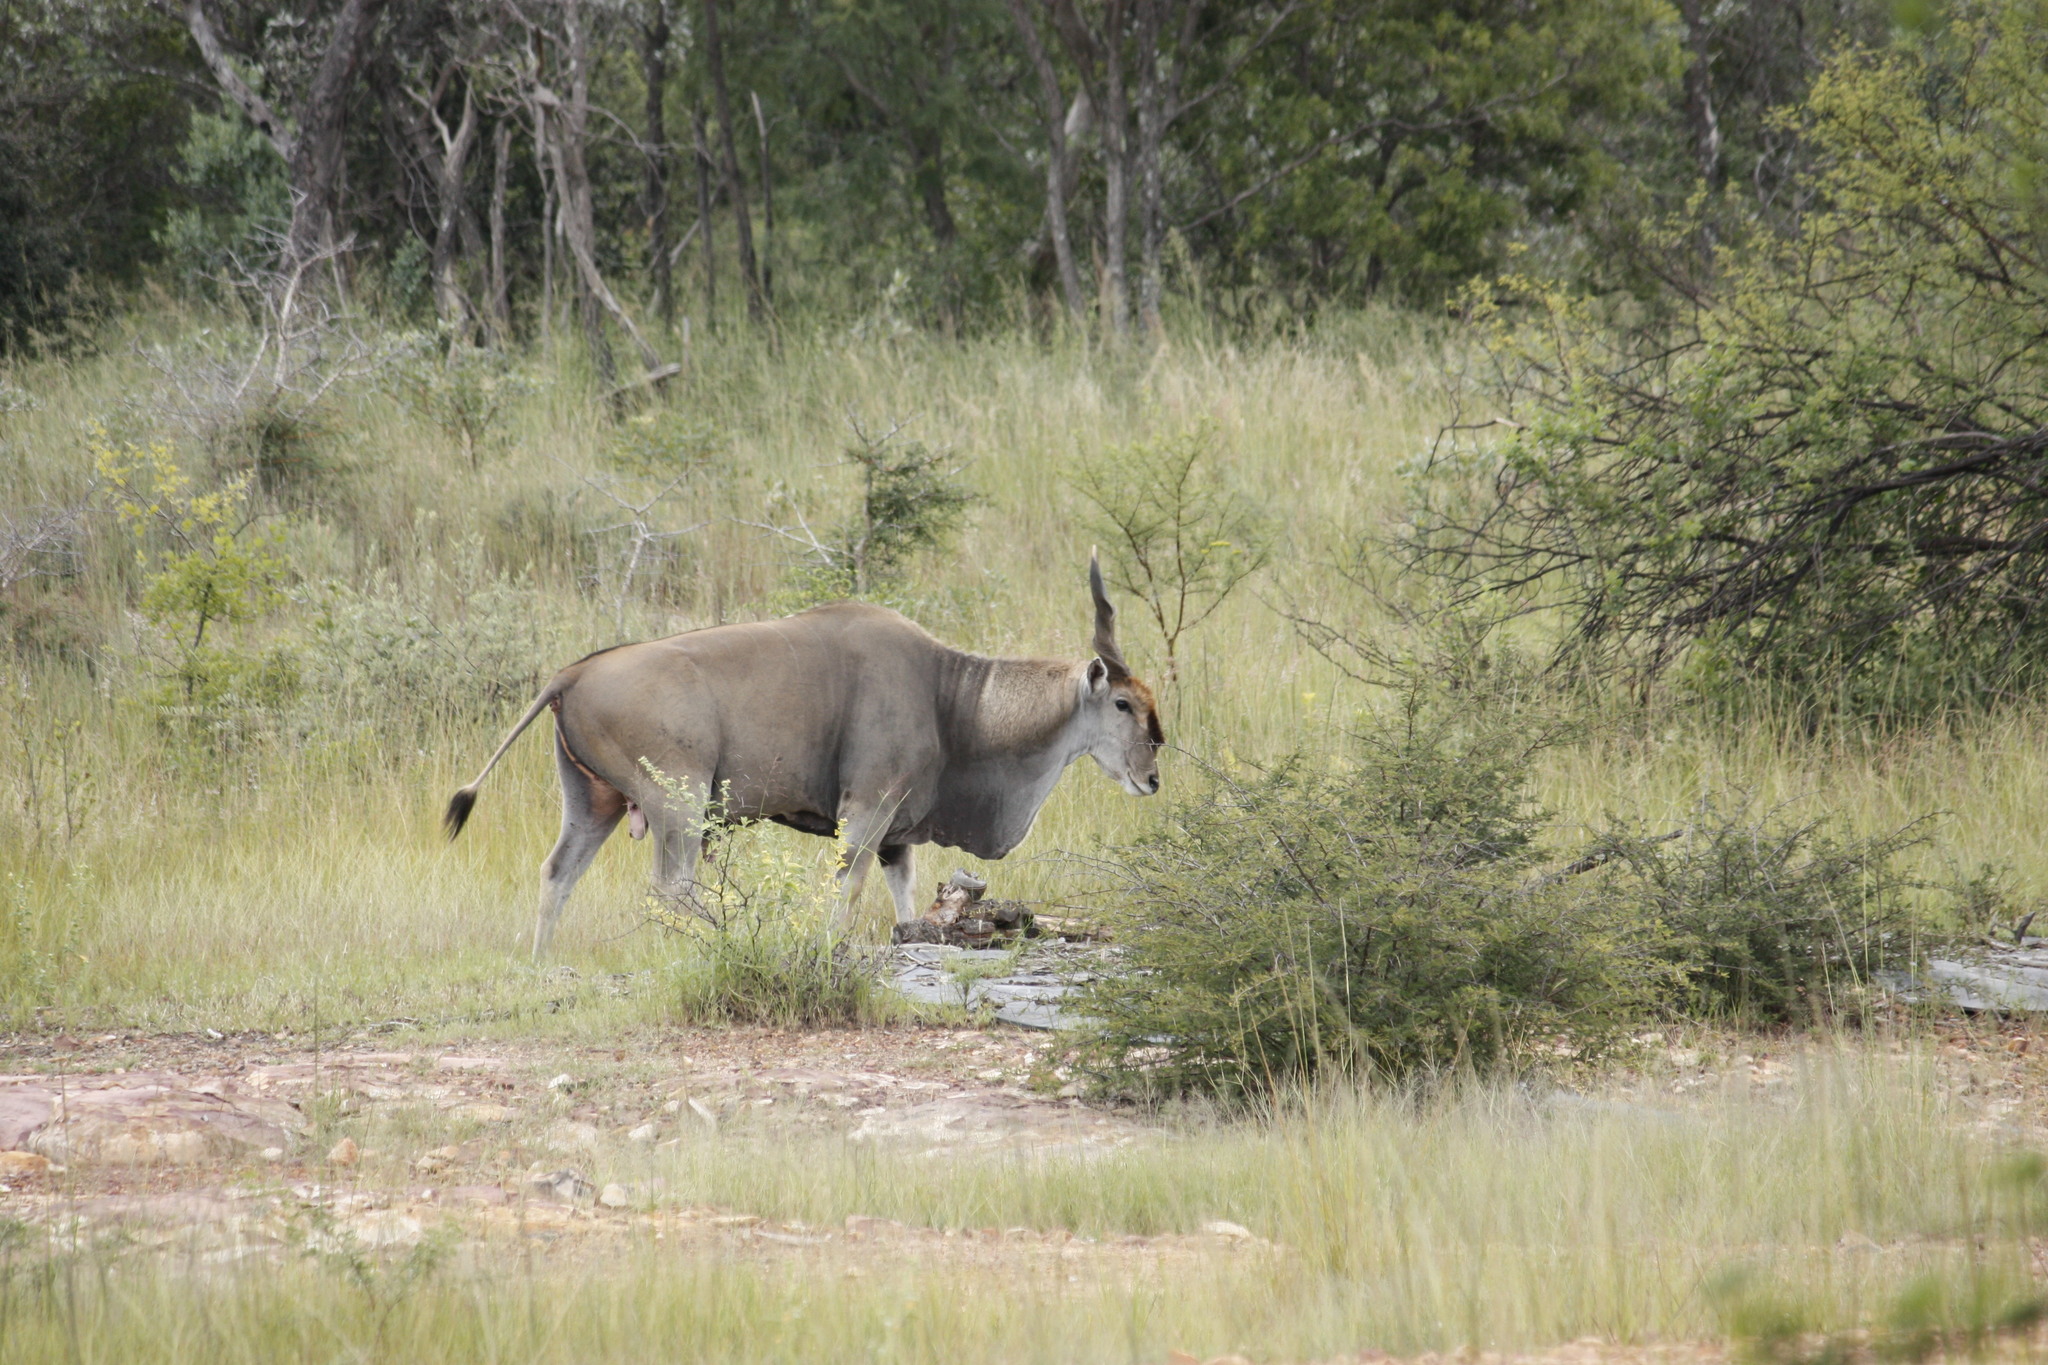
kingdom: Animalia
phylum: Chordata
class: Mammalia
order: Artiodactyla
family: Bovidae
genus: Taurotragus
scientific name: Taurotragus oryx
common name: Common eland
